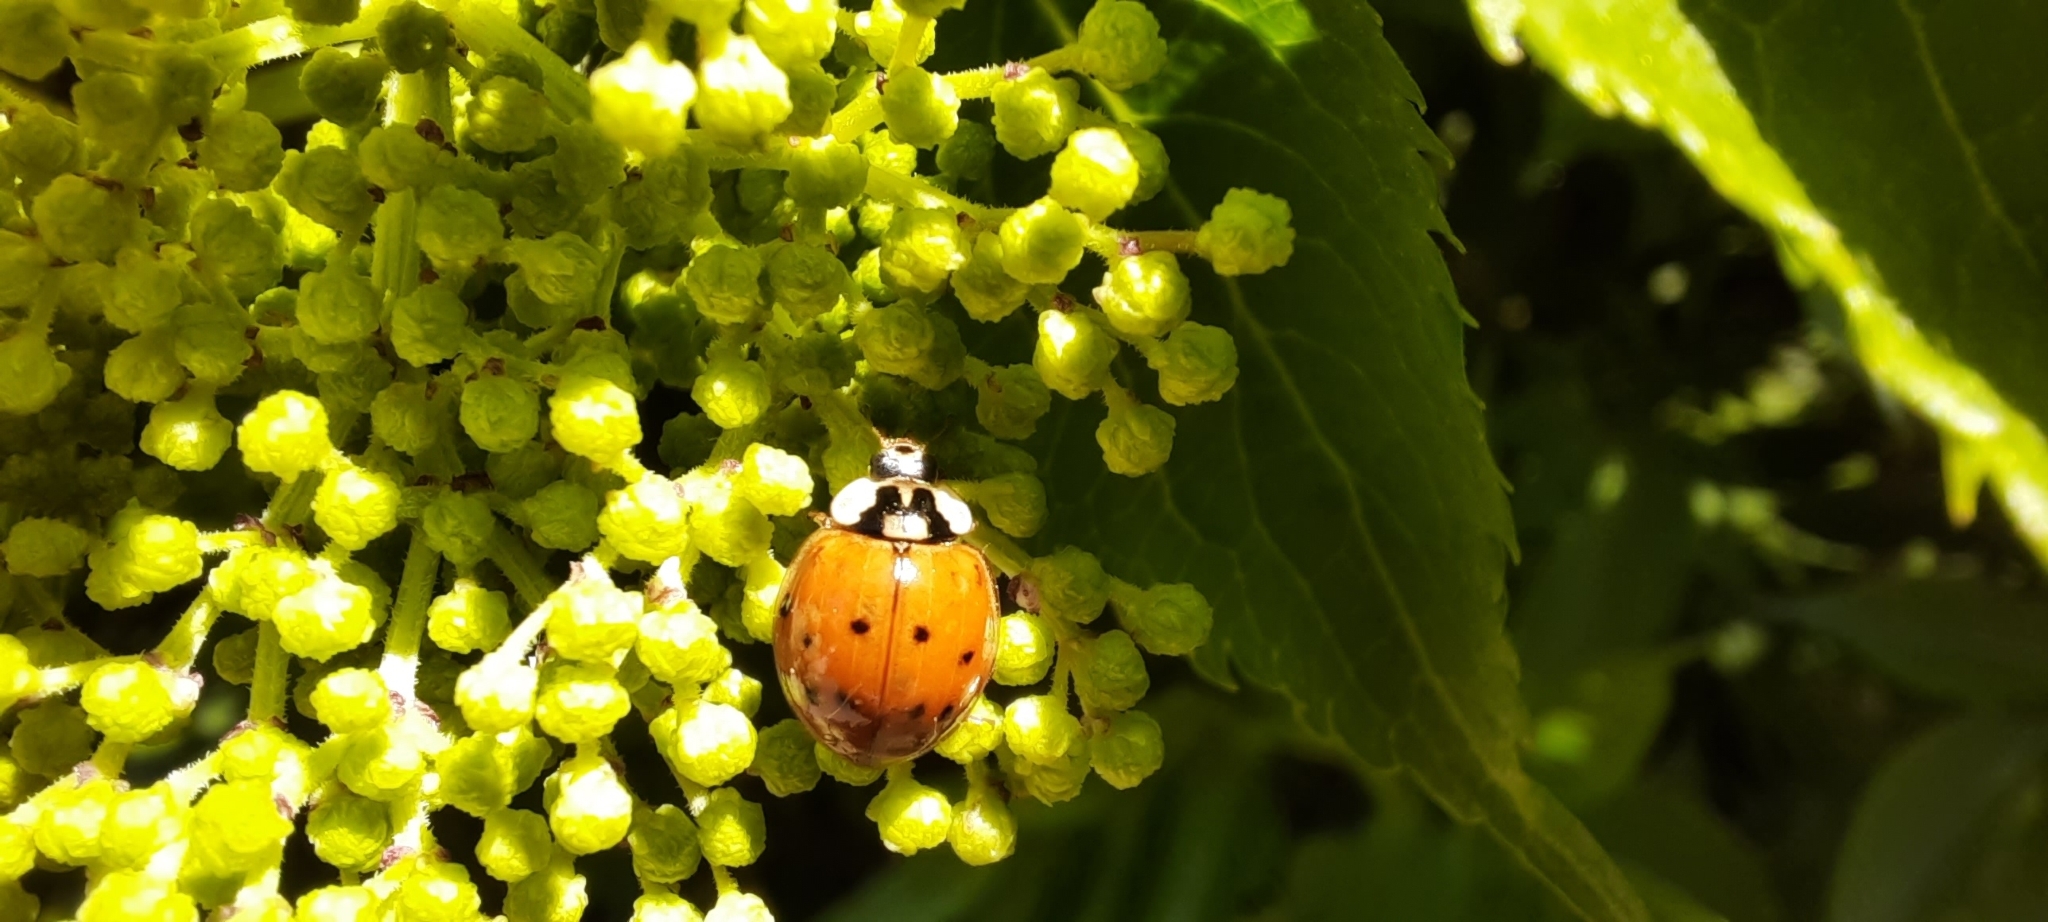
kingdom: Animalia
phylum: Arthropoda
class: Insecta
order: Coleoptera
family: Coccinellidae
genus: Harmonia
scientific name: Harmonia axyridis
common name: Harlequin ladybird
